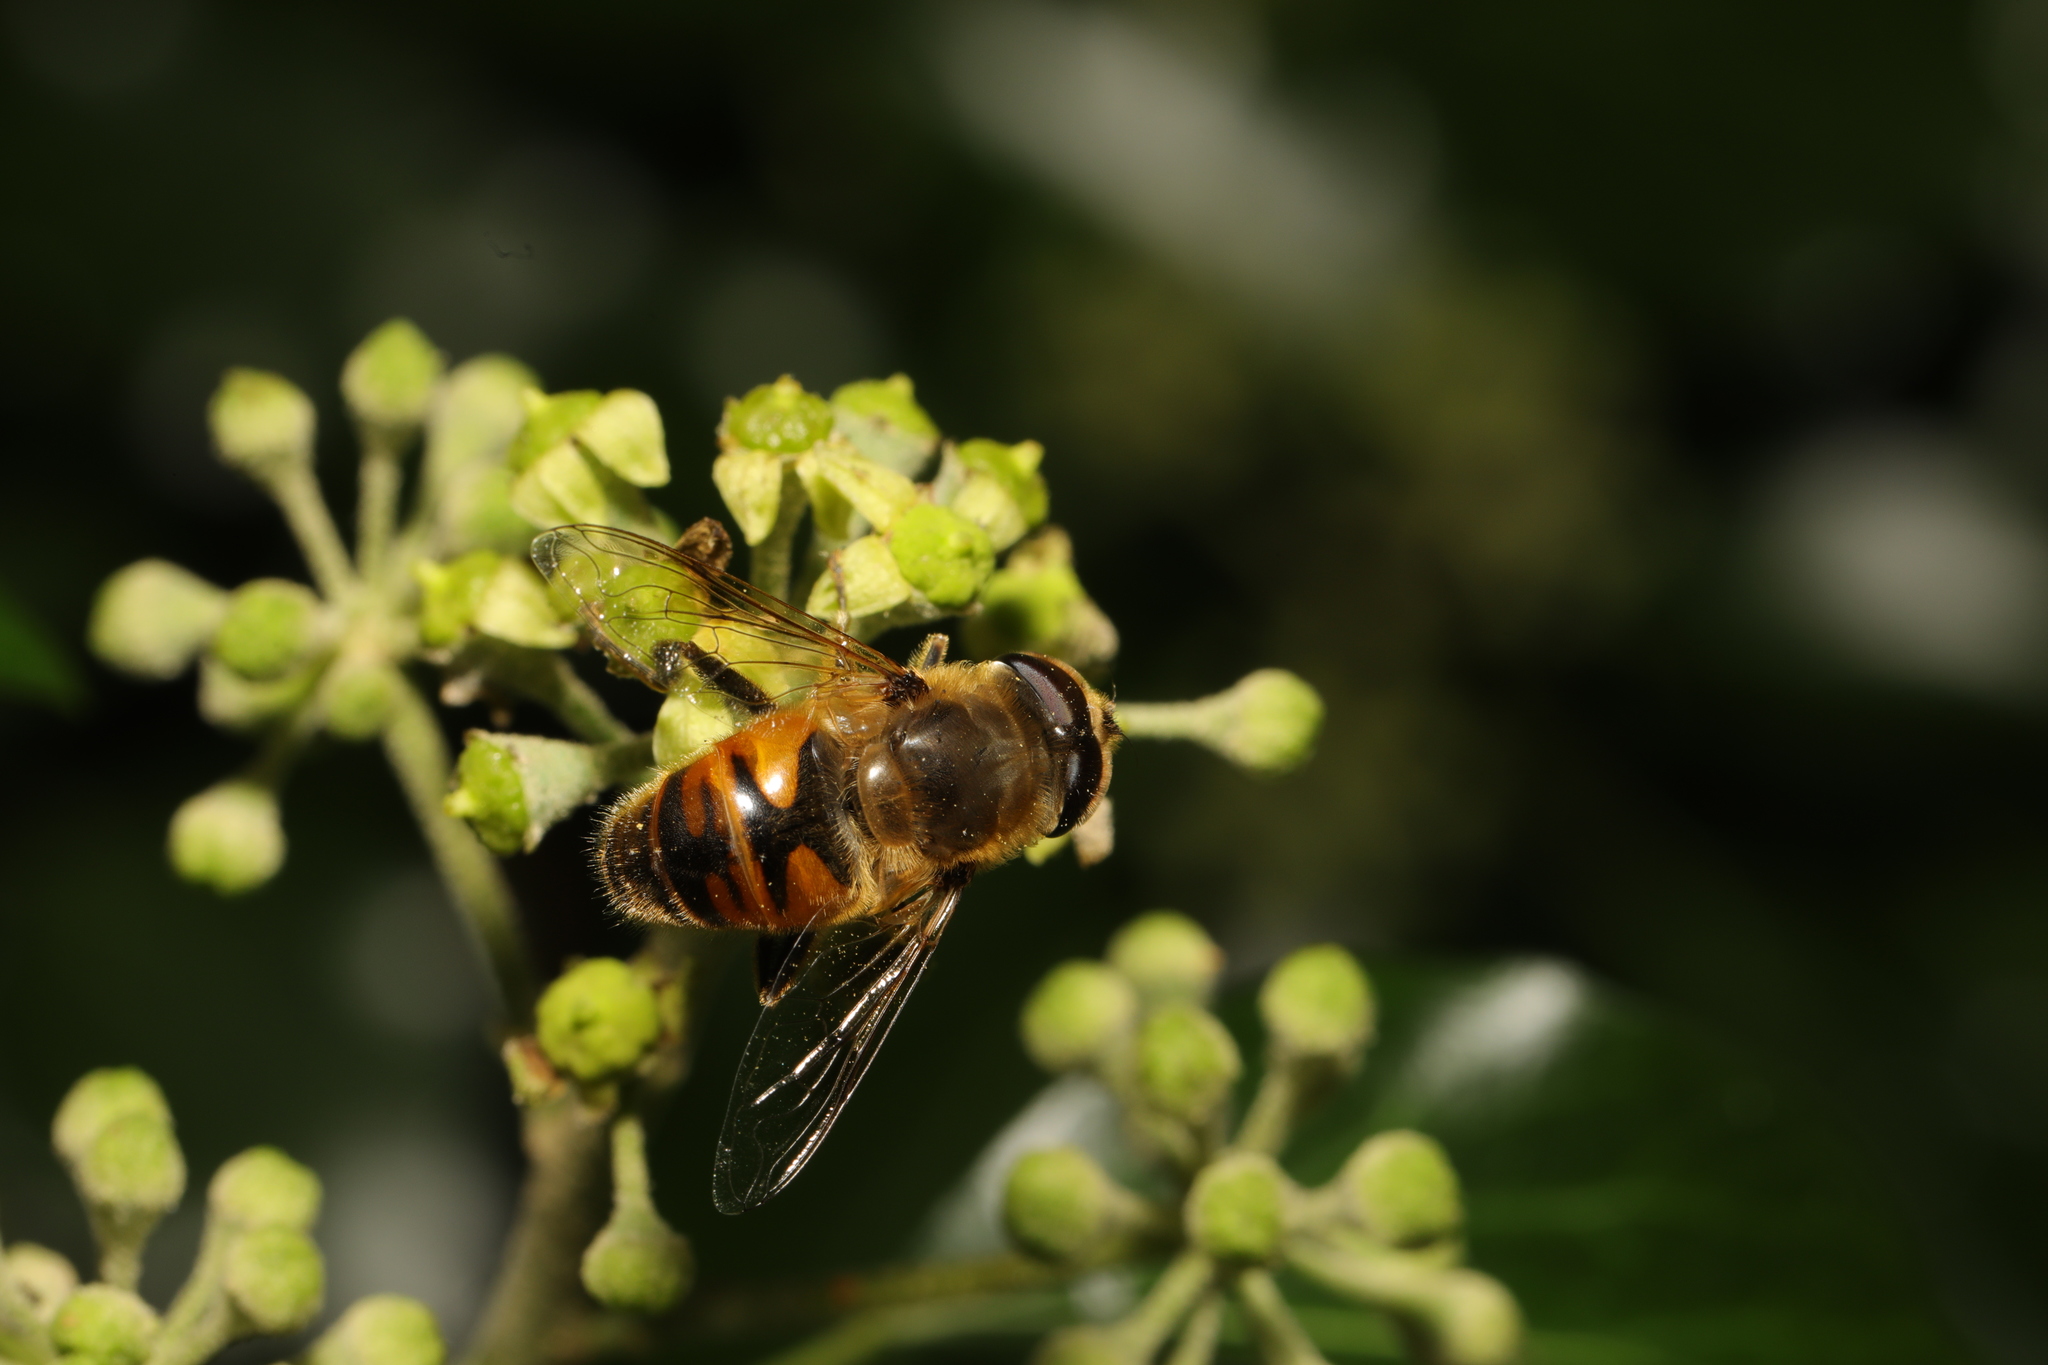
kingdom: Animalia
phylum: Arthropoda
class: Insecta
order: Diptera
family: Syrphidae
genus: Eristalis
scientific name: Eristalis tenax
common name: Drone fly
